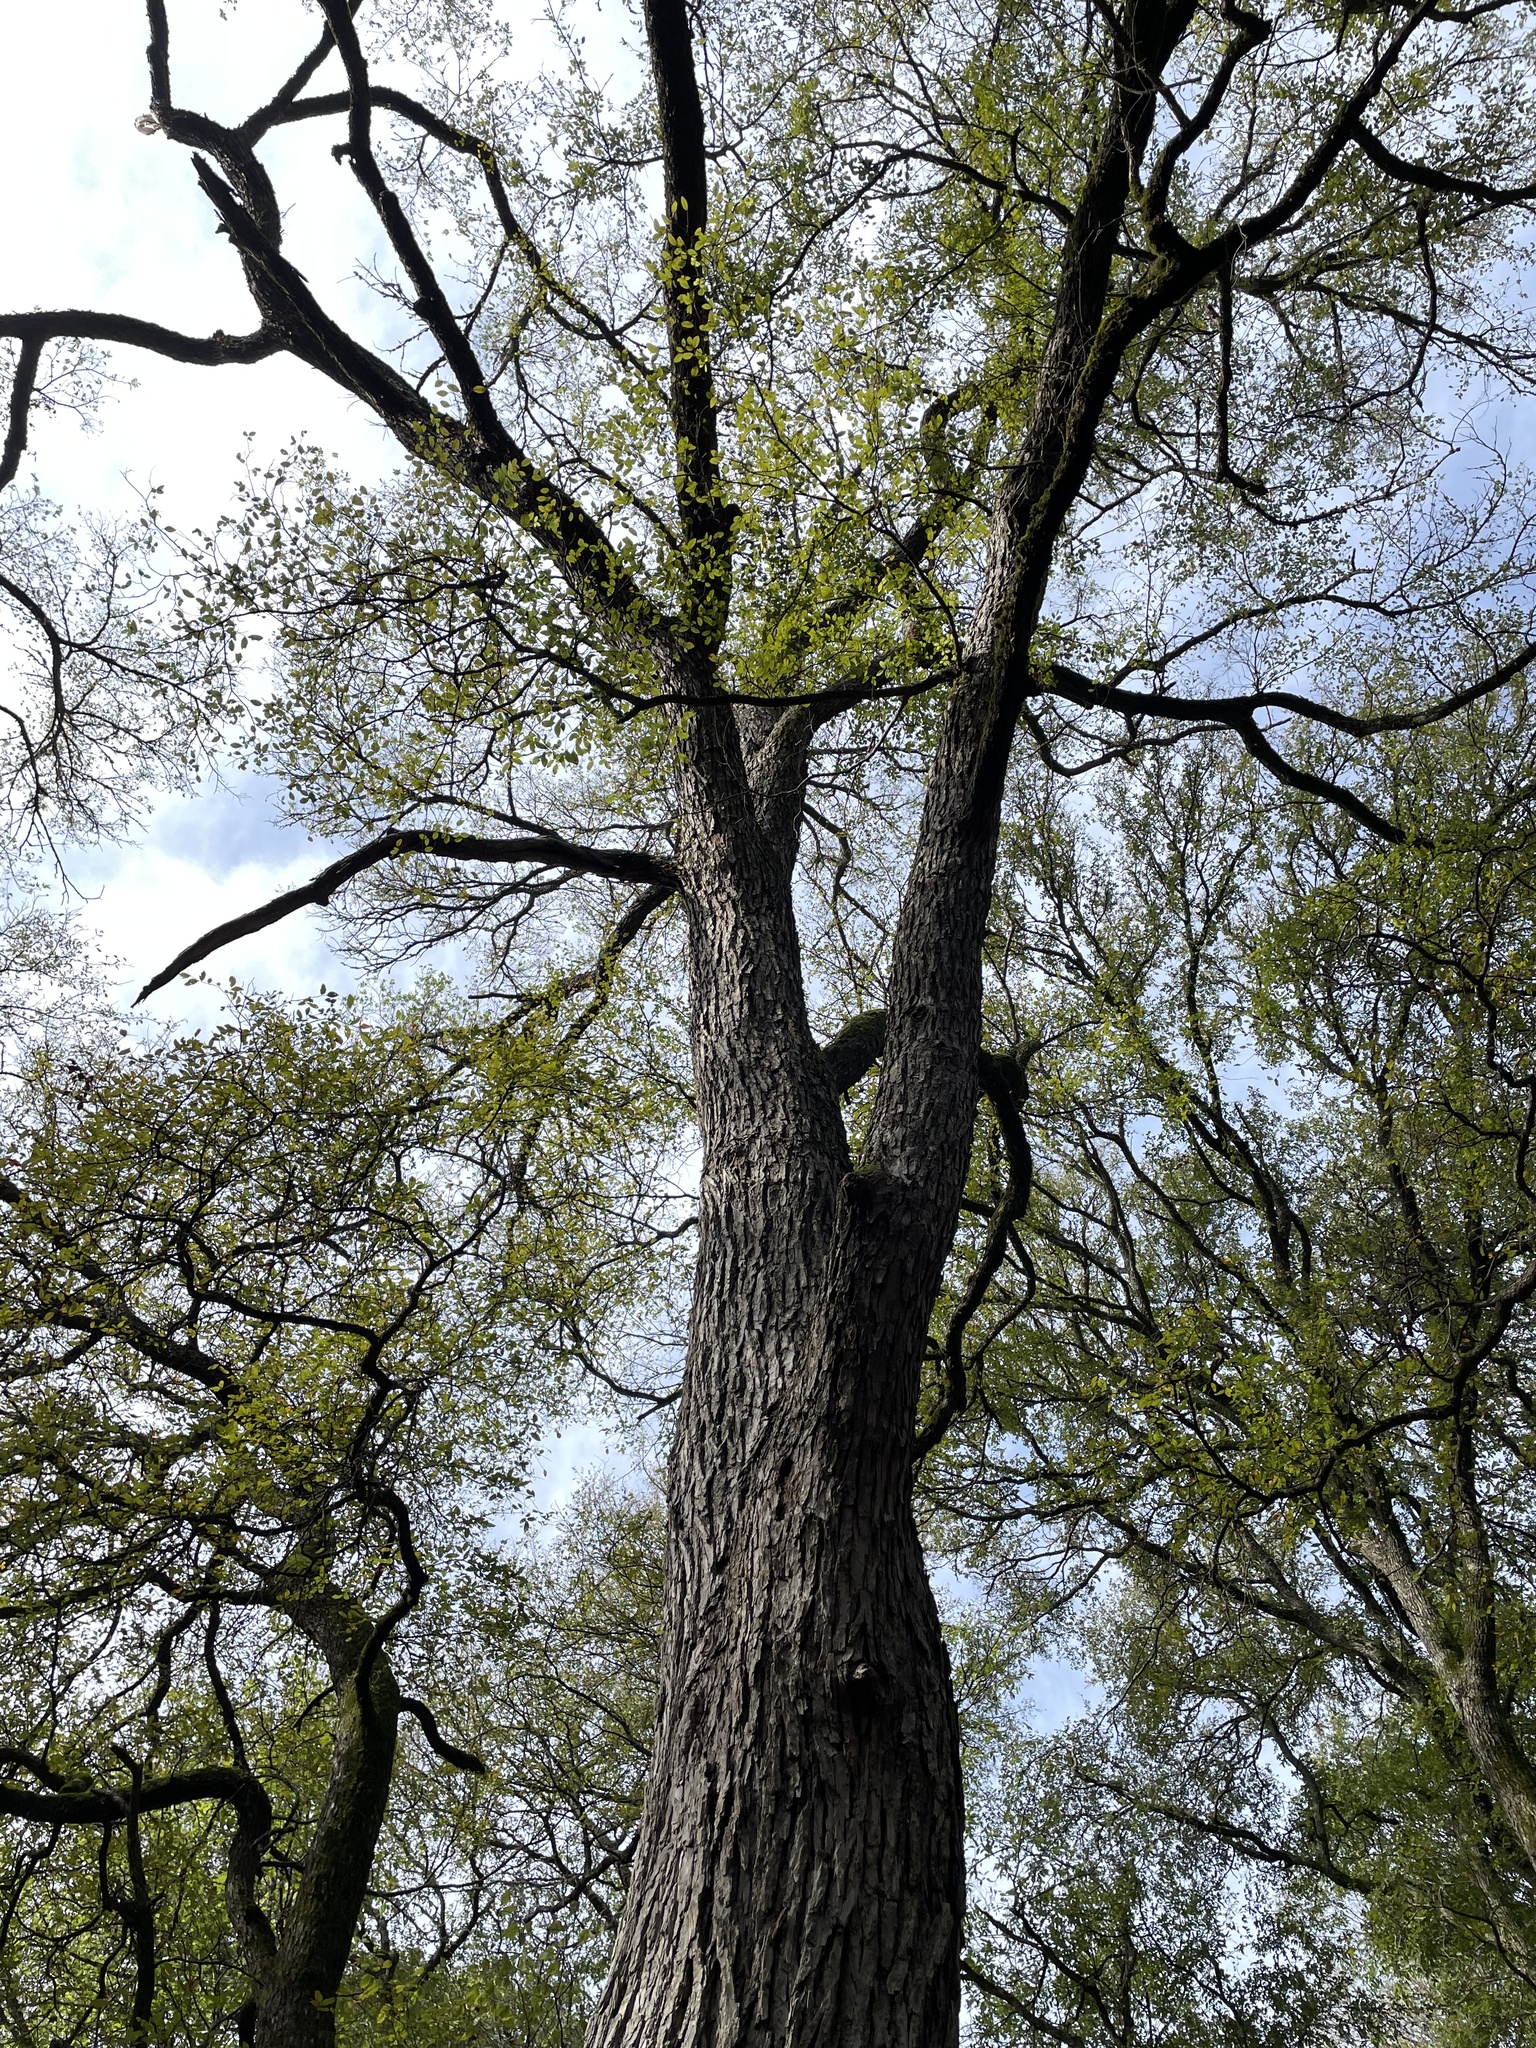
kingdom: Plantae
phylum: Tracheophyta
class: Magnoliopsida
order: Rosales
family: Ulmaceae
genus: Ulmus
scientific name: Ulmus crassifolia
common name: Basket elm
